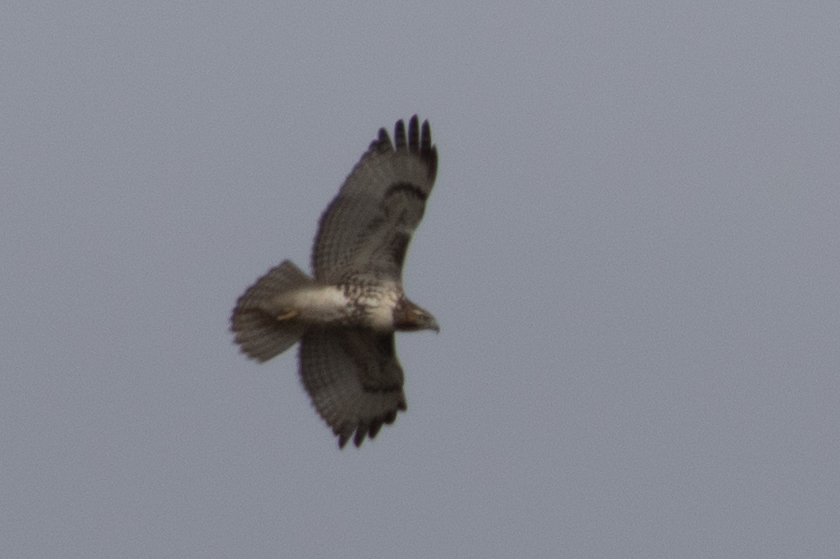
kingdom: Animalia
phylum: Chordata
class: Aves
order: Accipitriformes
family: Accipitridae
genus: Buteo
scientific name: Buteo jamaicensis
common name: Red-tailed hawk
